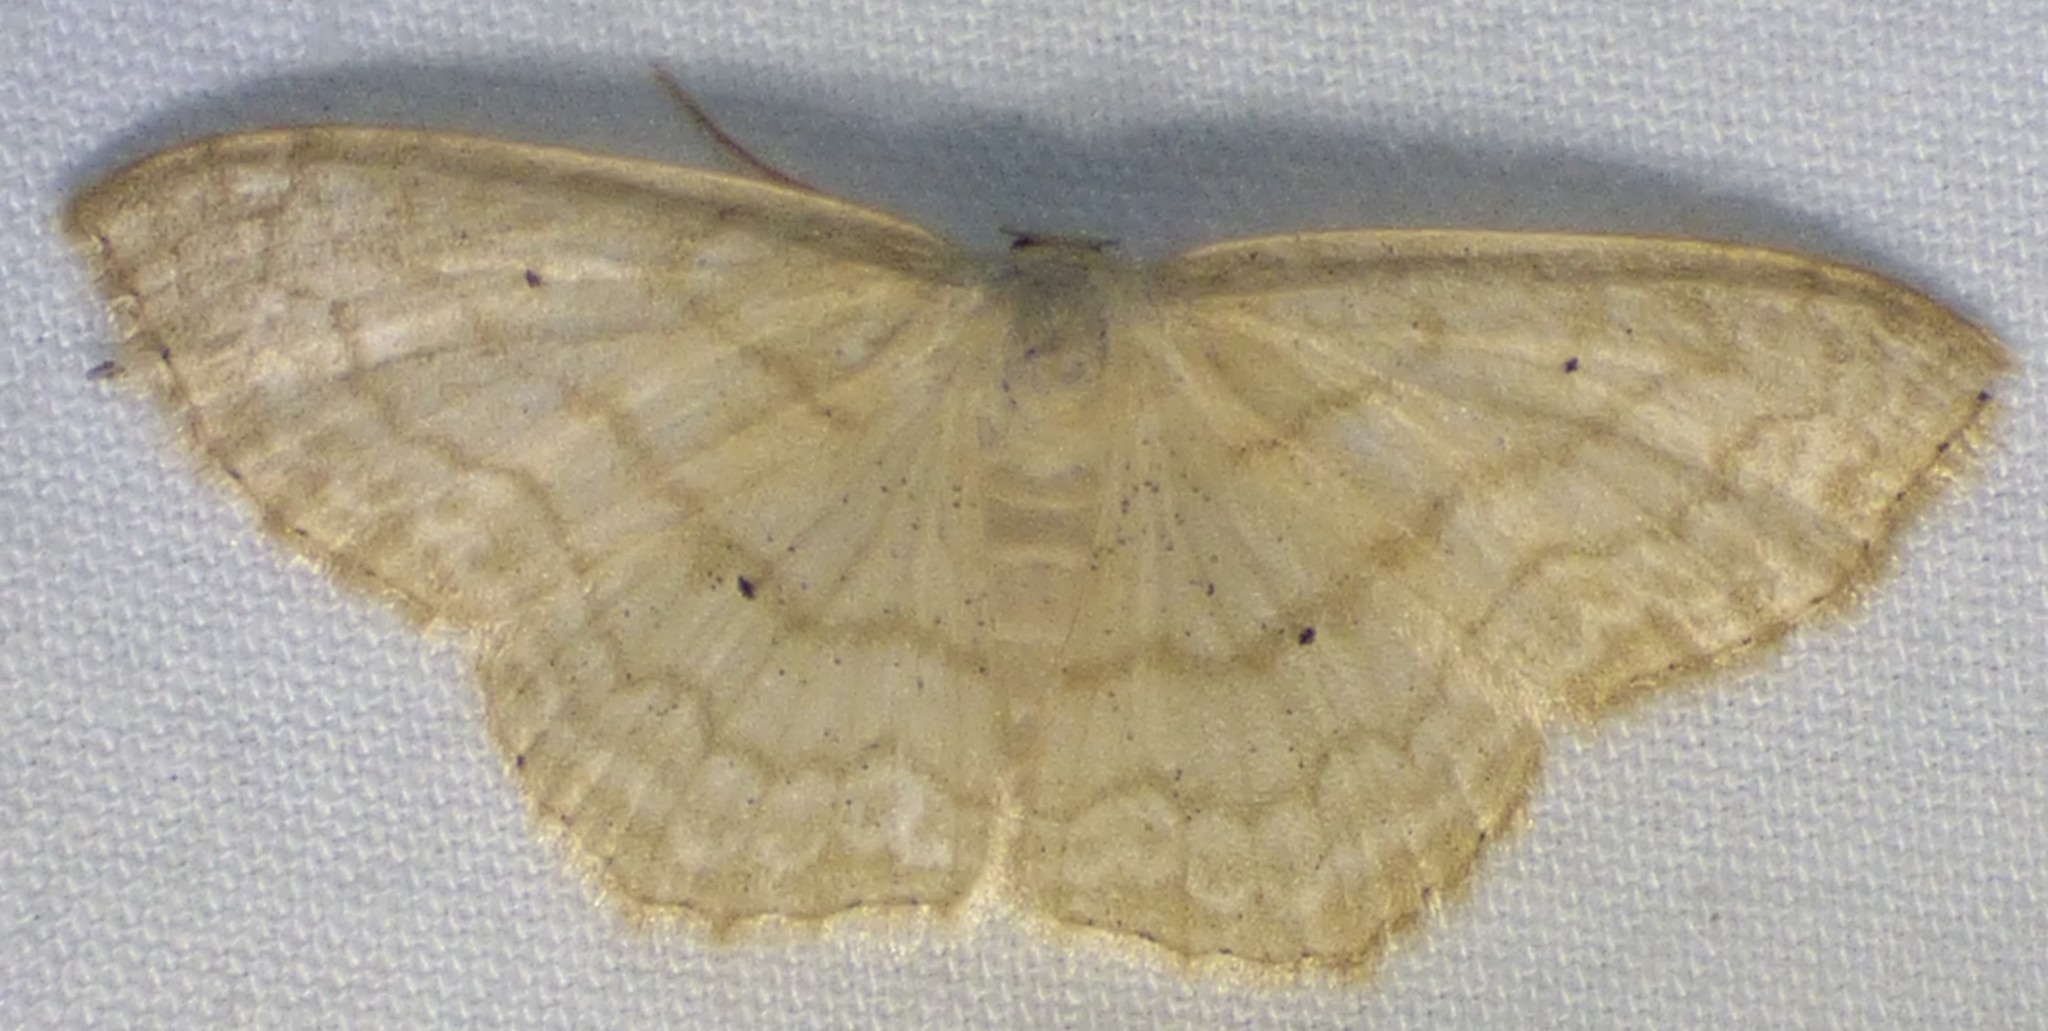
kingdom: Animalia
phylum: Arthropoda
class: Insecta
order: Lepidoptera
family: Geometridae
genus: Scopula
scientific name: Scopula limboundata
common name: Large lace border
